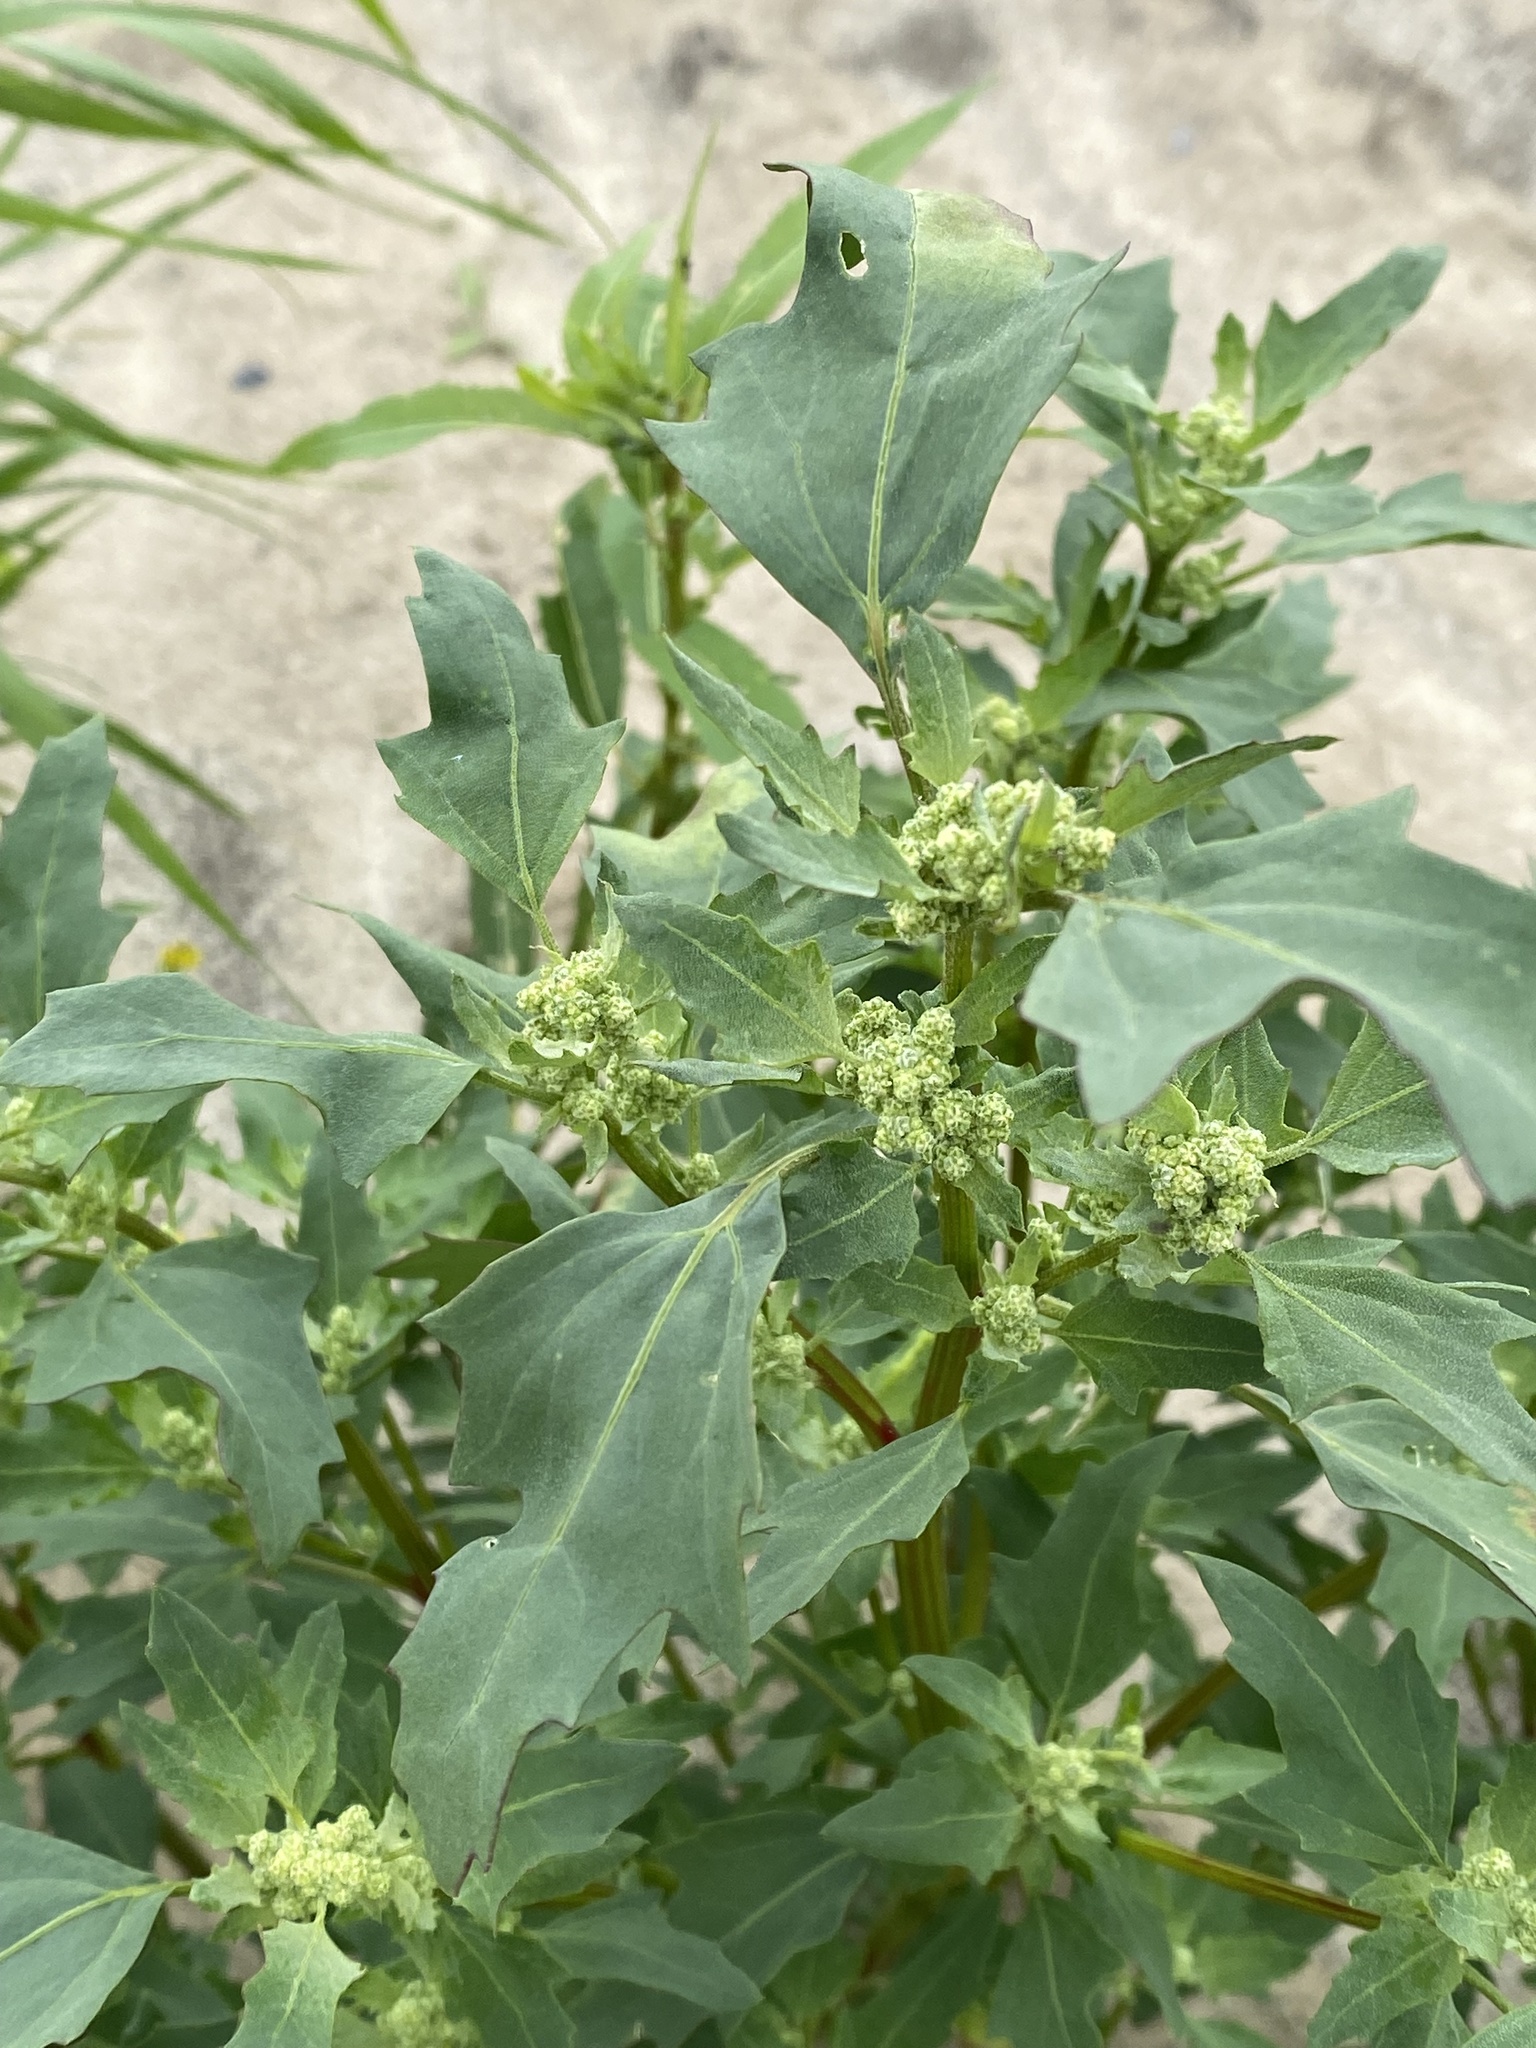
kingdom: Plantae
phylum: Tracheophyta
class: Magnoliopsida
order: Caryophyllales
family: Amaranthaceae
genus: Oxybasis
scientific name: Oxybasis rubra
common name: Red goosefoot
